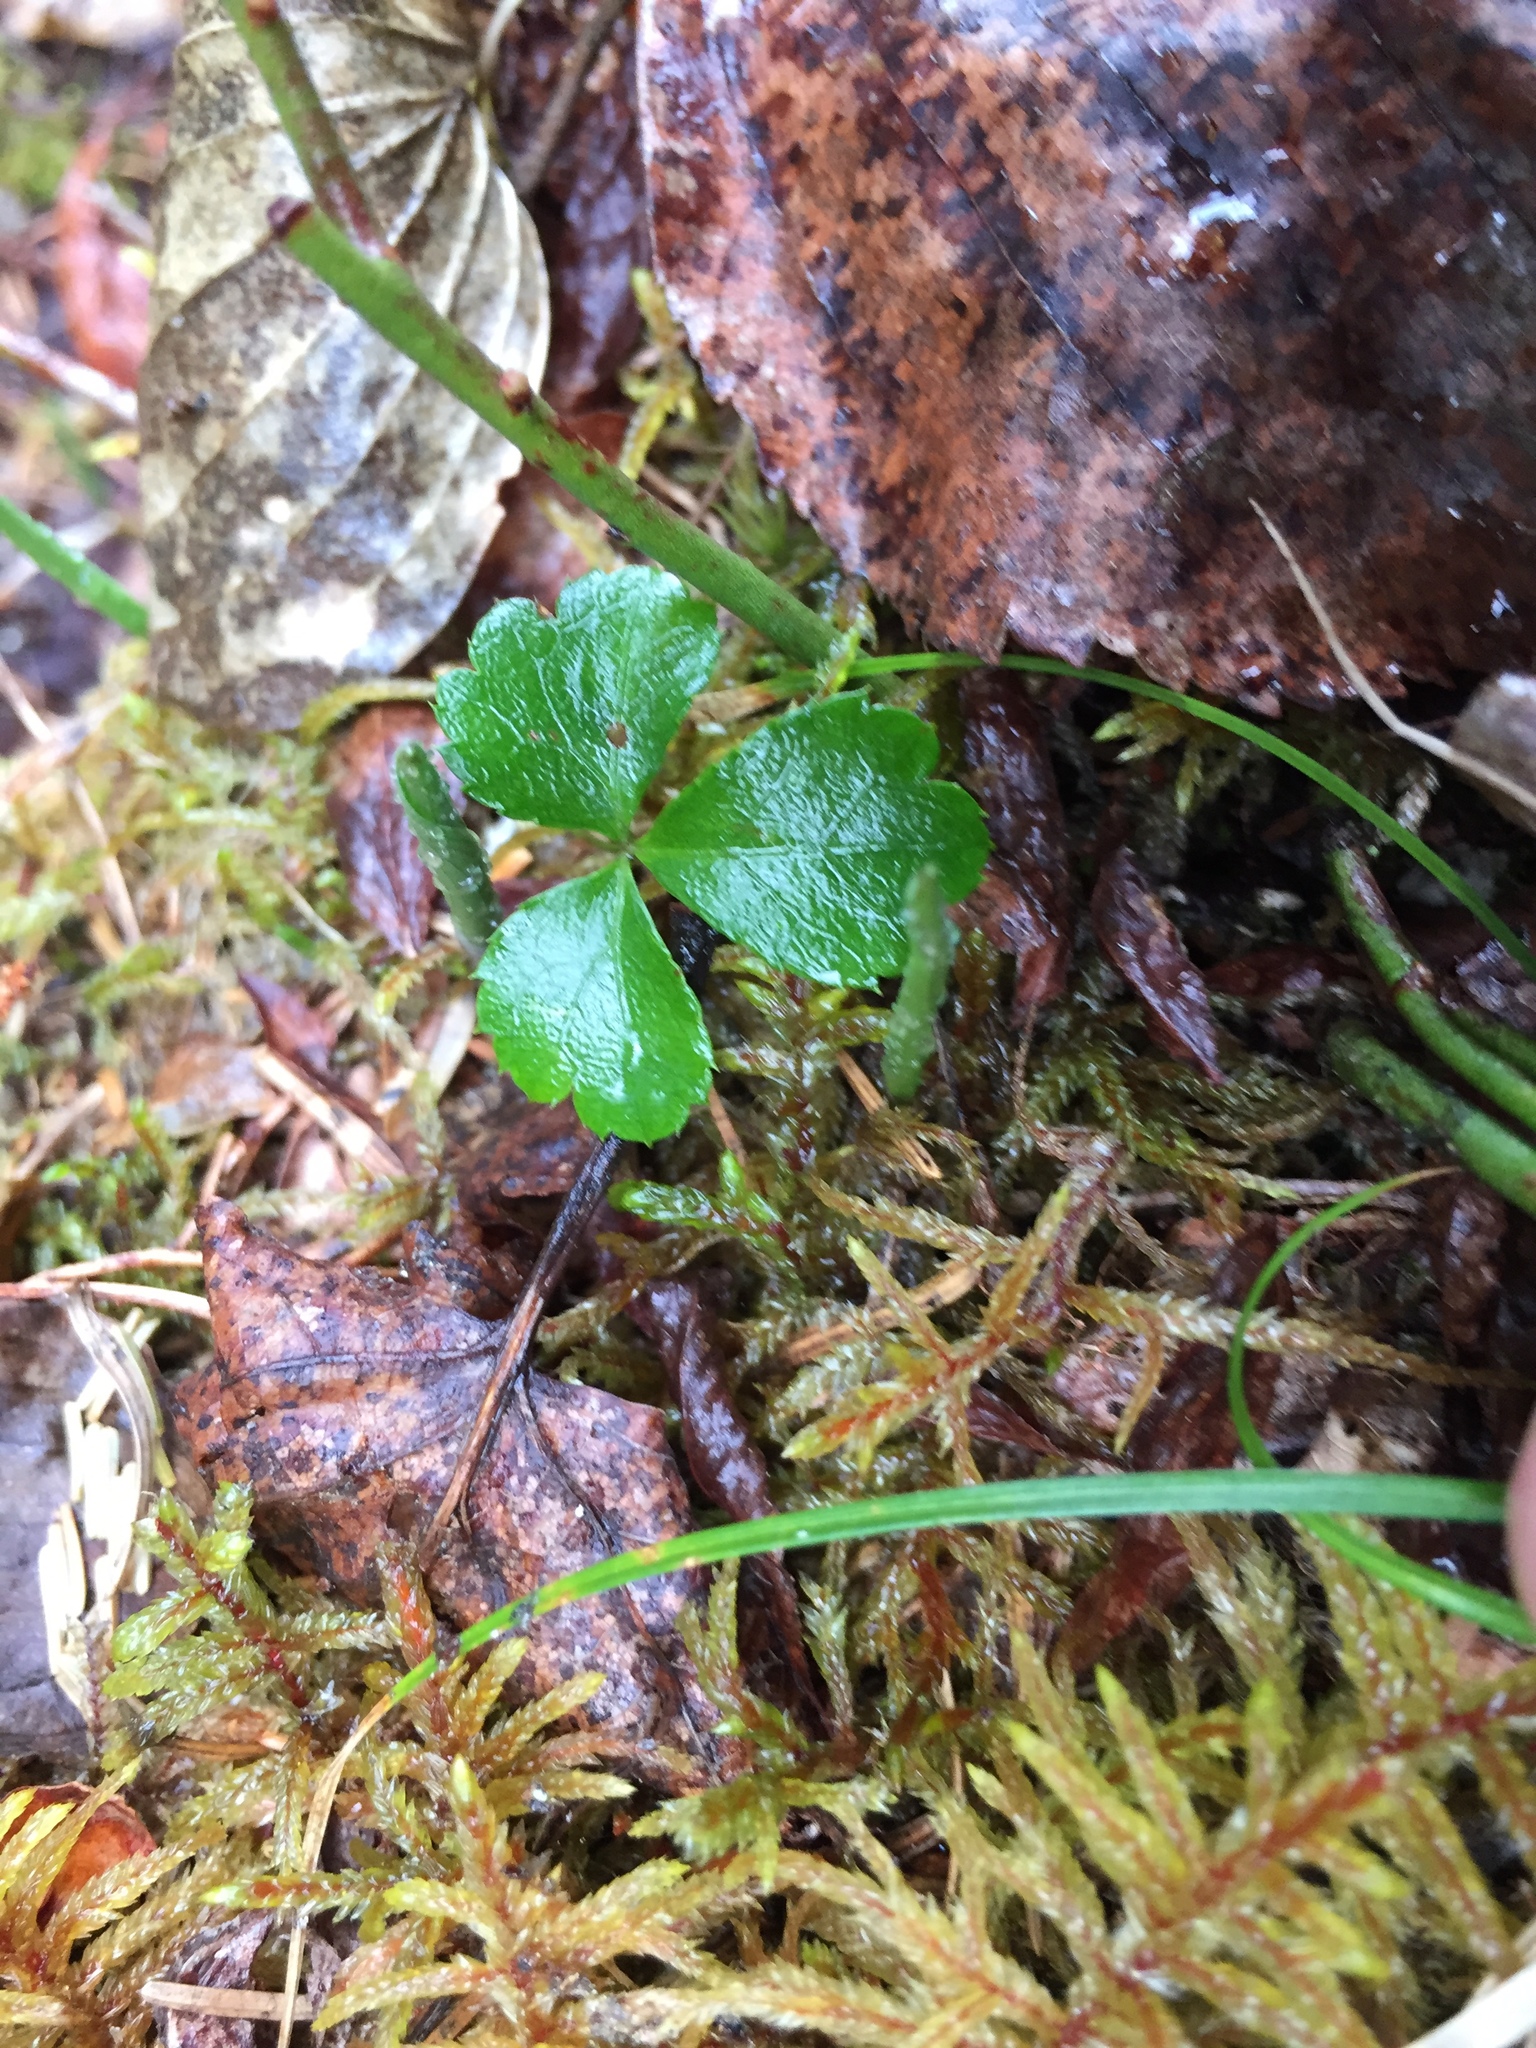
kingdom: Plantae
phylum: Tracheophyta
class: Magnoliopsida
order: Ranunculales
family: Ranunculaceae
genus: Coptis
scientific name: Coptis trifolia
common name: Canker-root
